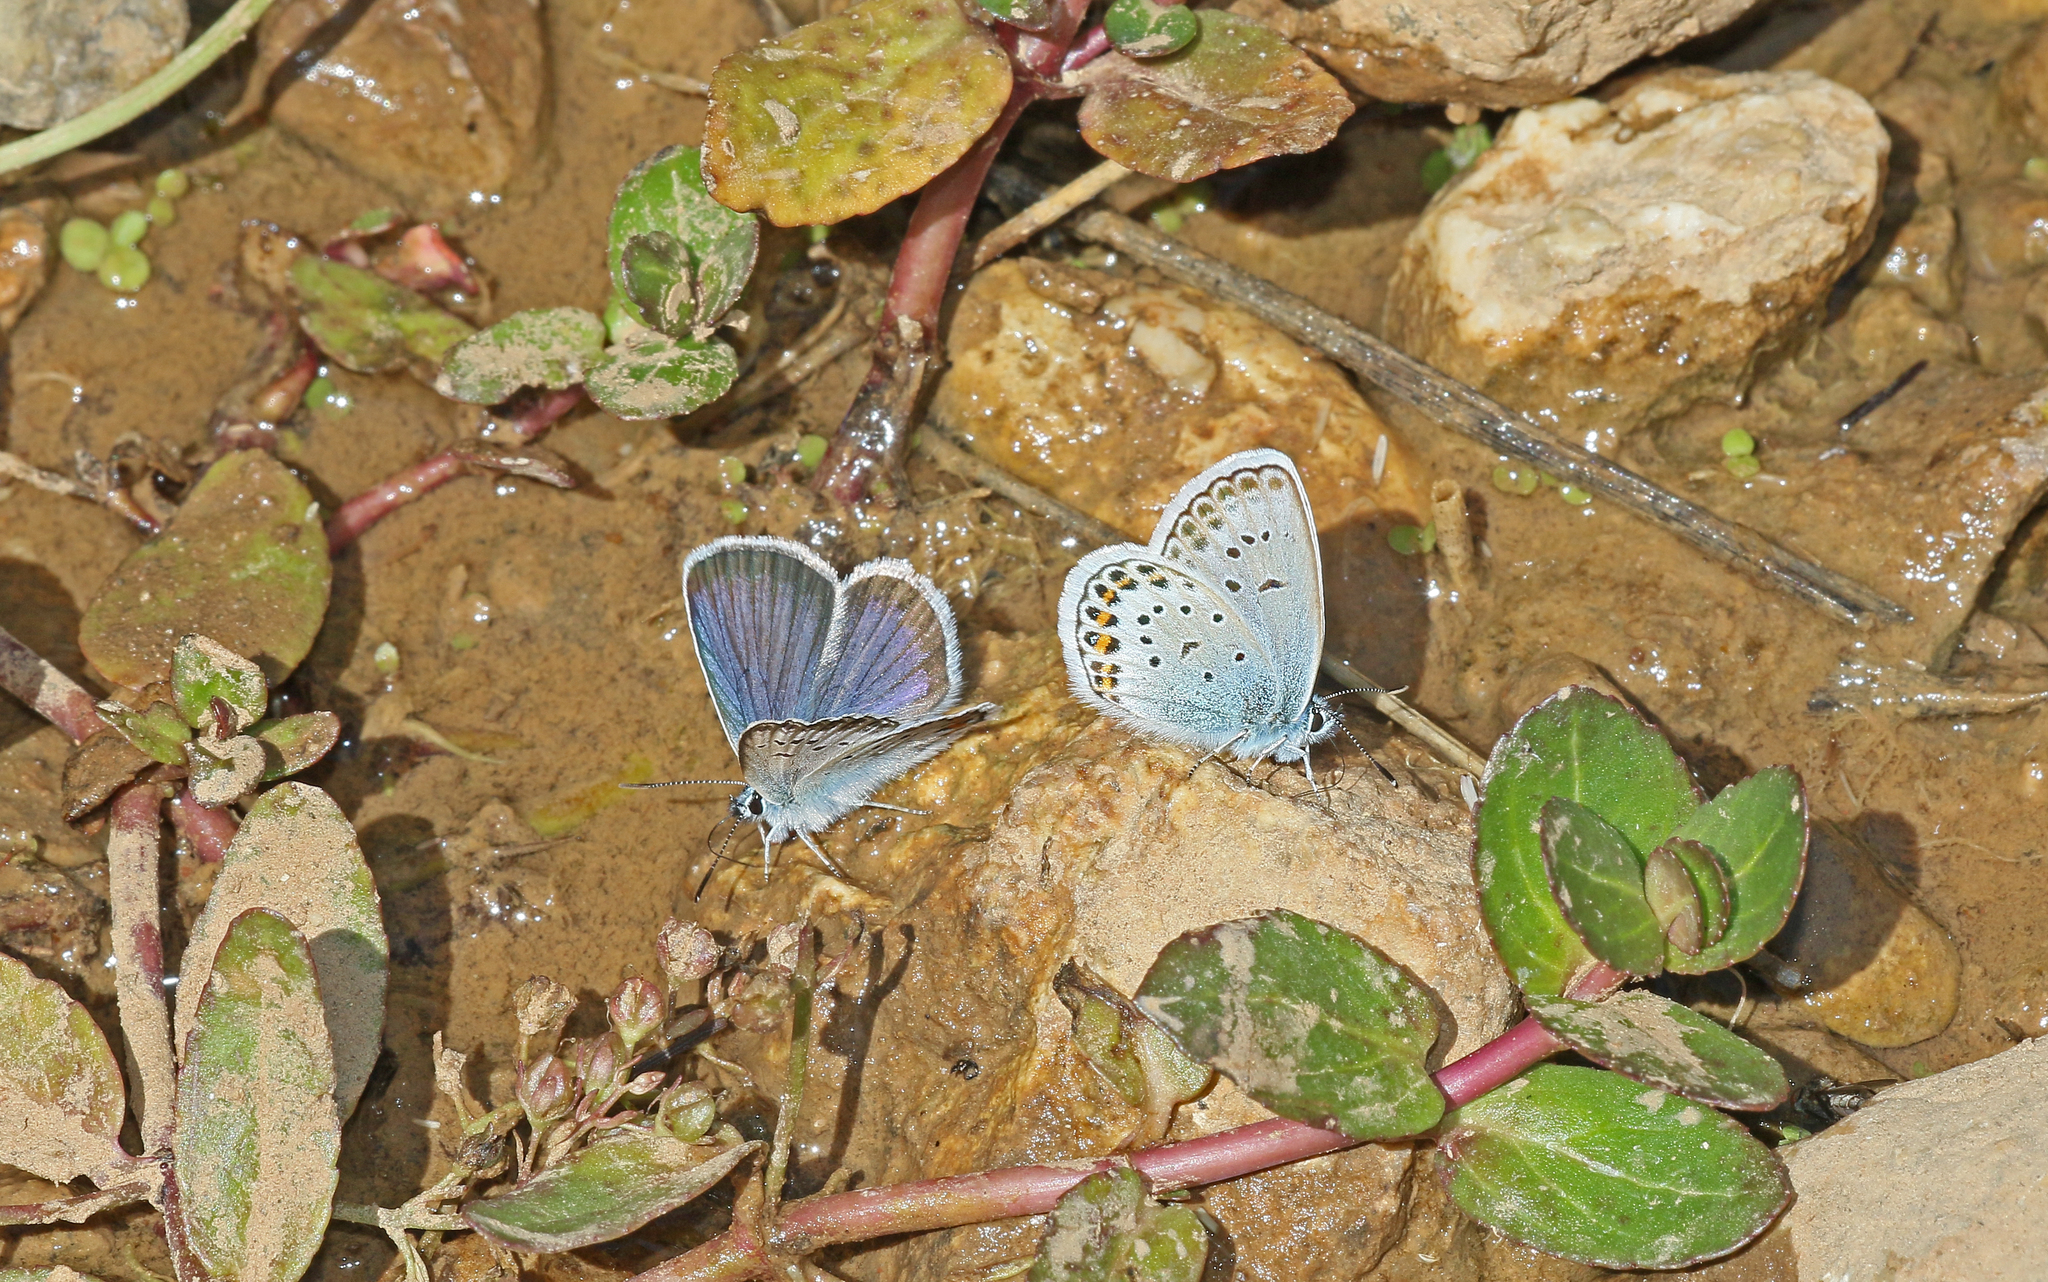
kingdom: Animalia
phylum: Arthropoda
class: Insecta
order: Lepidoptera
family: Lycaenidae
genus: Plebejus
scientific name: Plebejus argus
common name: Silver-studded blue
